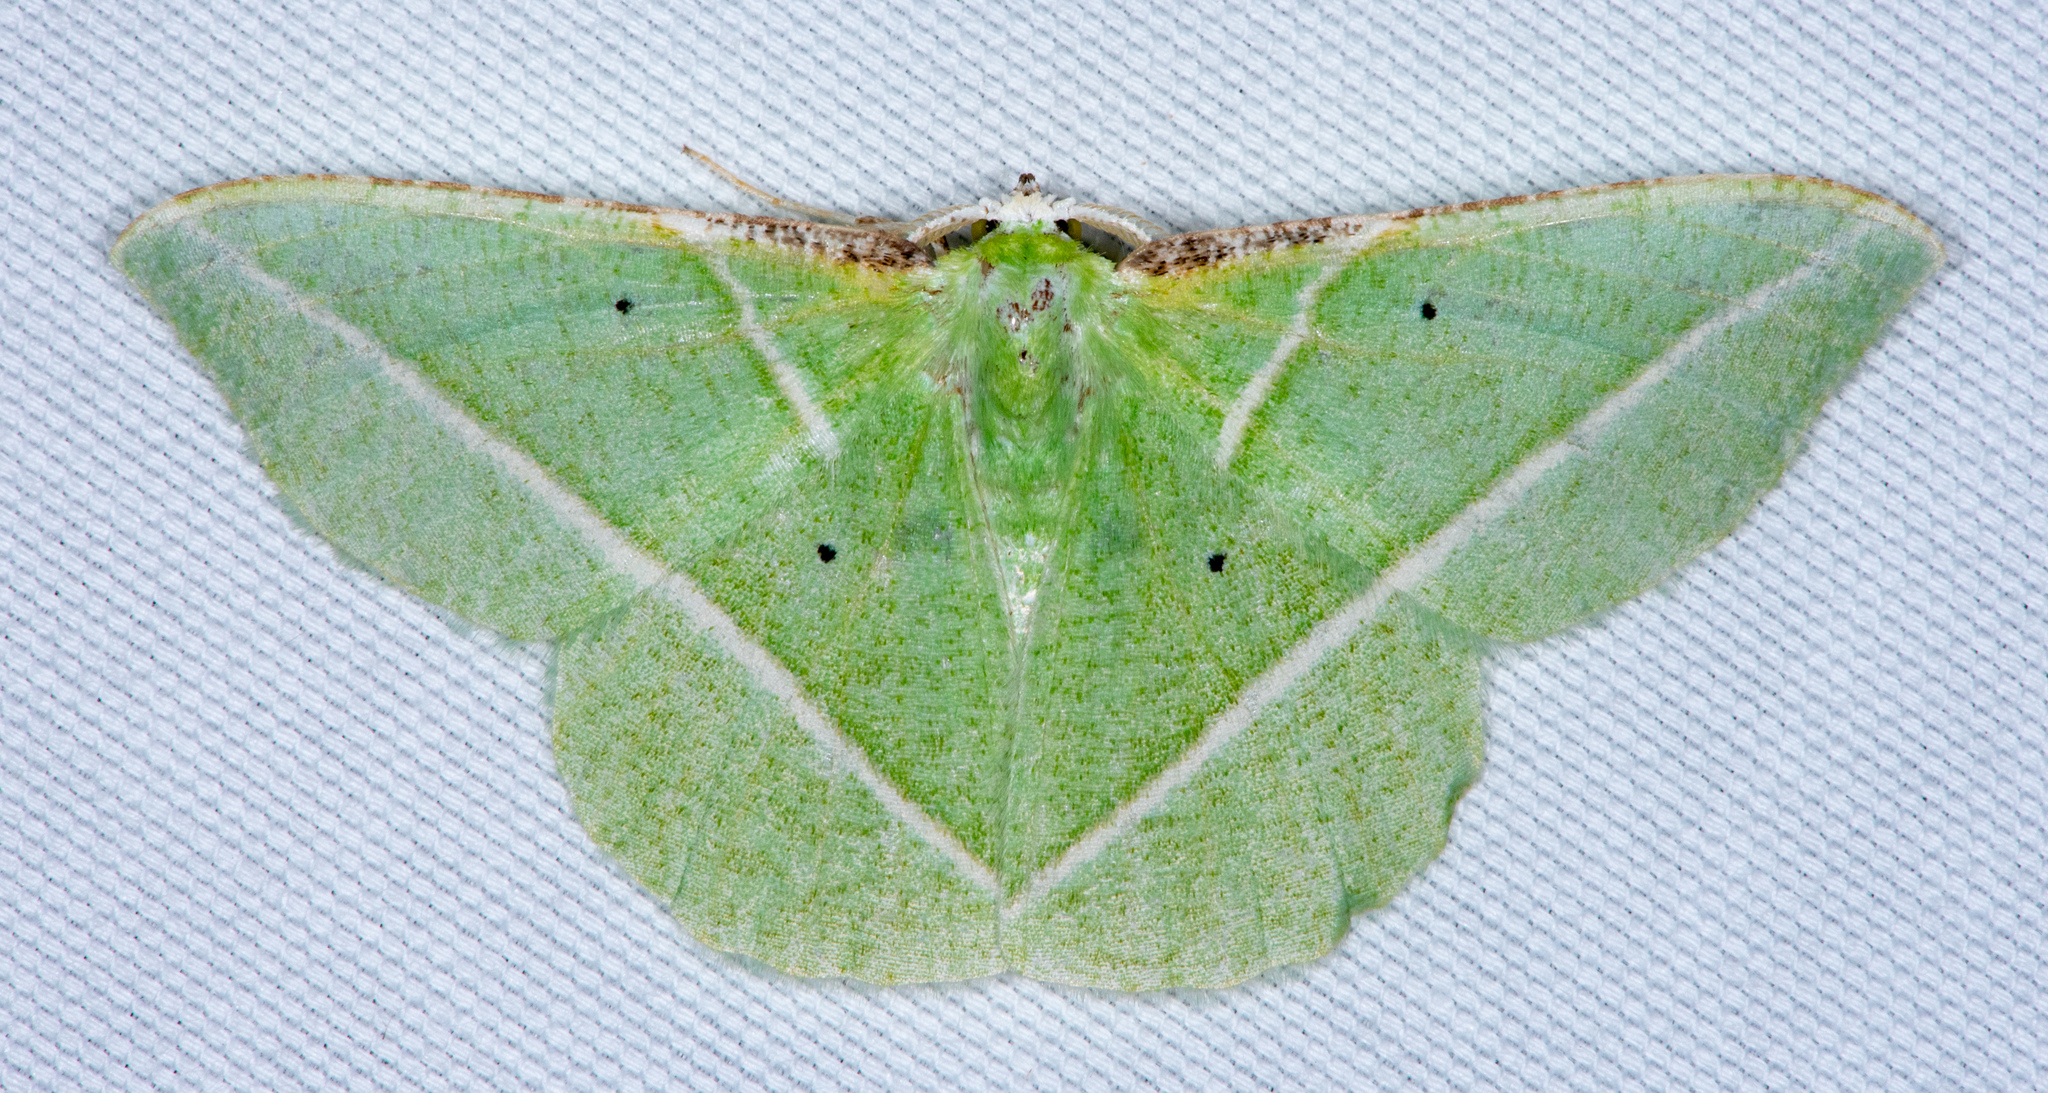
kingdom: Animalia
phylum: Arthropoda
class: Insecta
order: Lepidoptera
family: Geometridae
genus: Dichorda
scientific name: Dichorda illustraria
